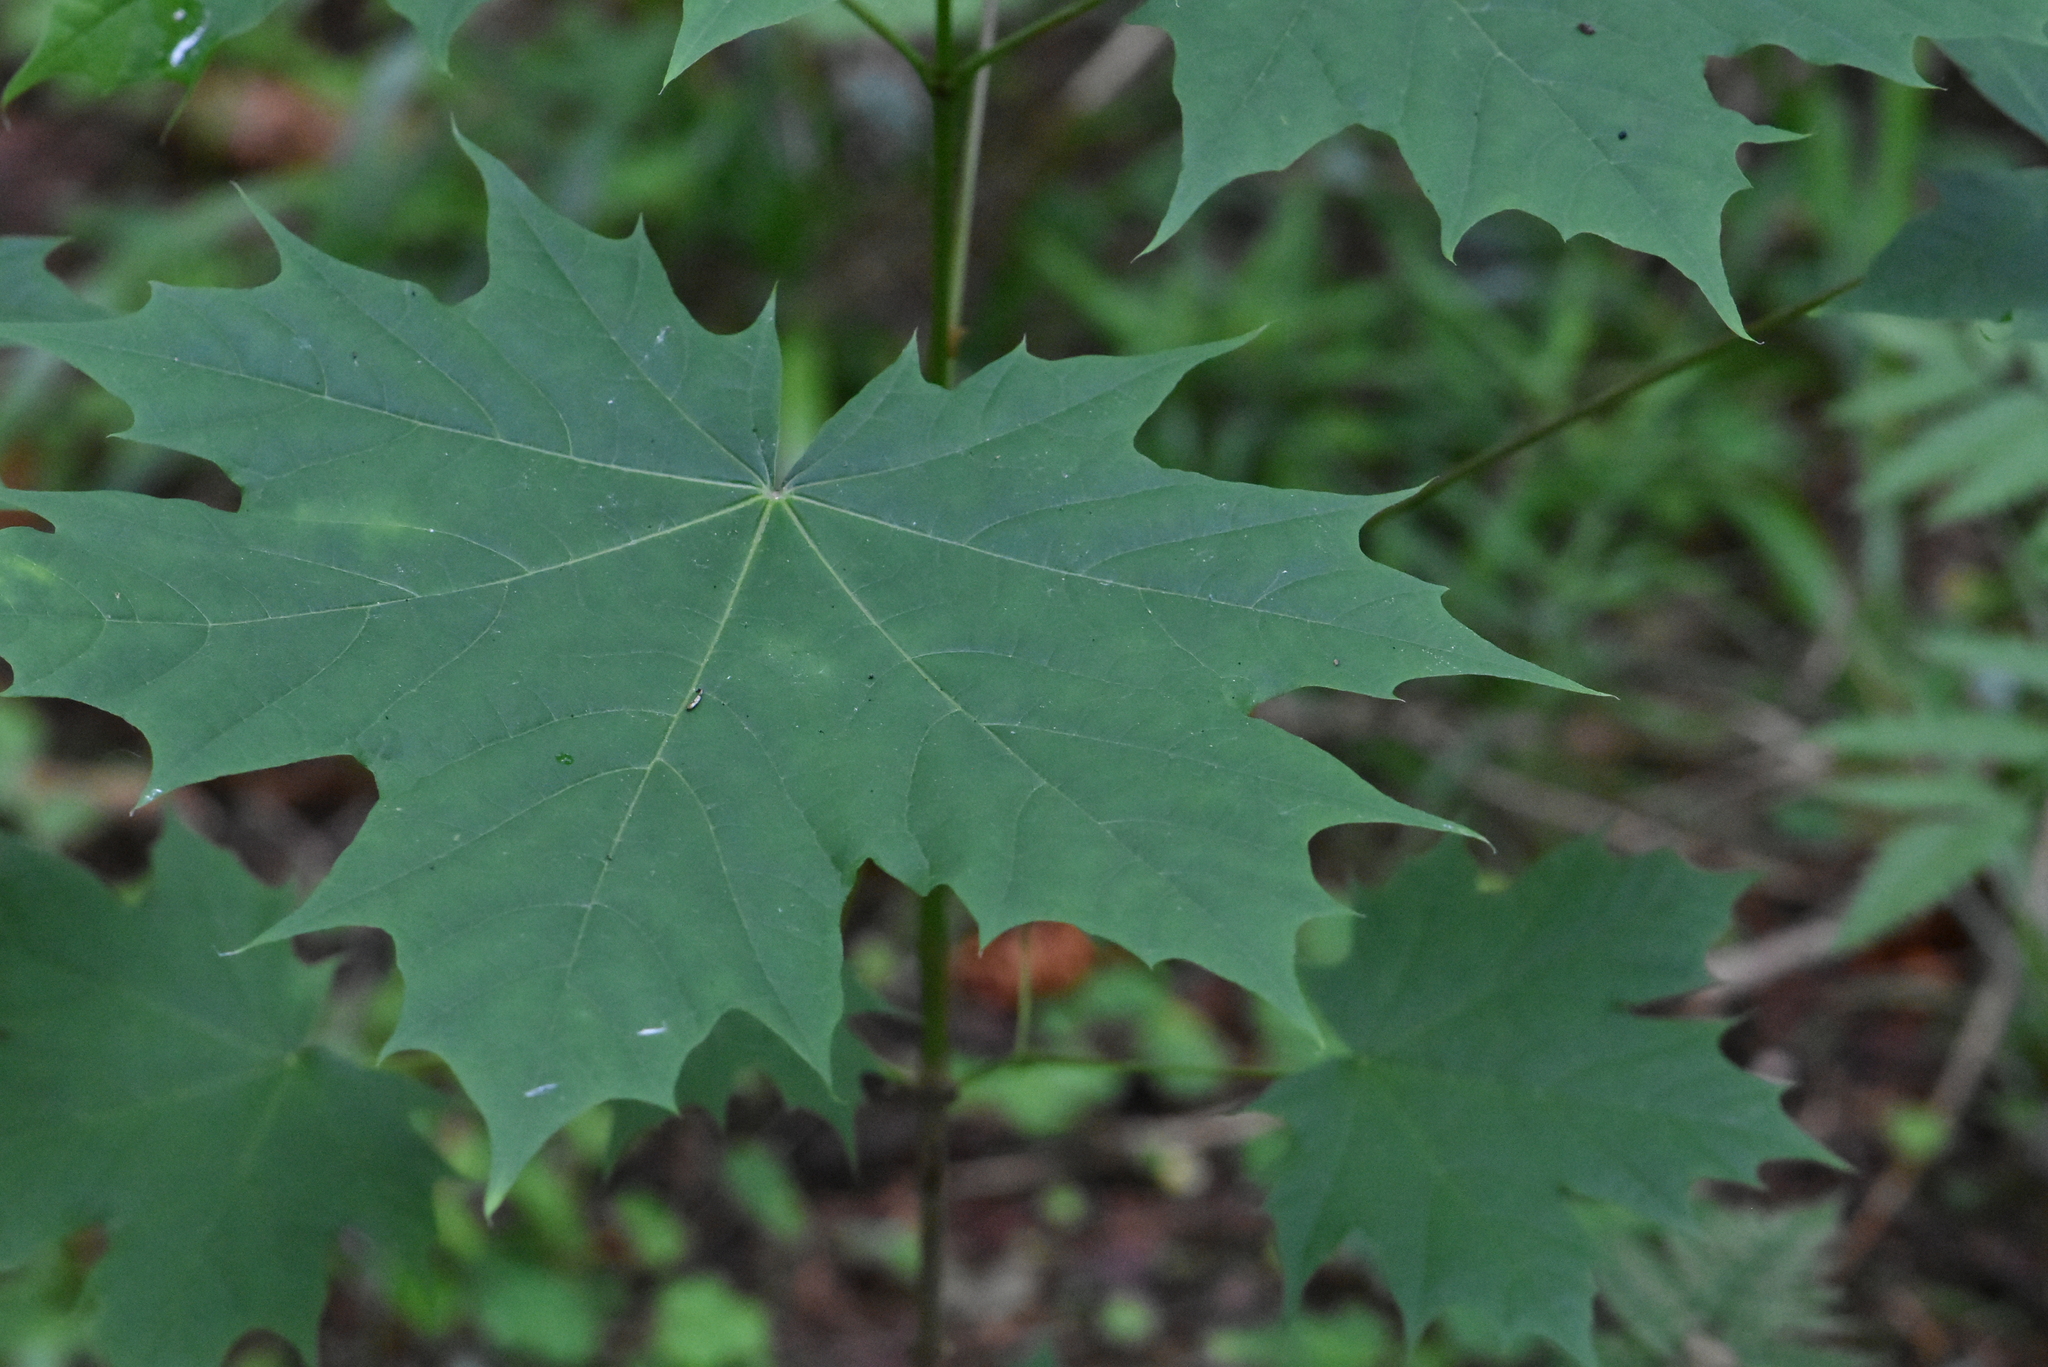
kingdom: Plantae
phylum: Tracheophyta
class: Magnoliopsida
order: Sapindales
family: Sapindaceae
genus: Acer
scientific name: Acer platanoides
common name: Norway maple
